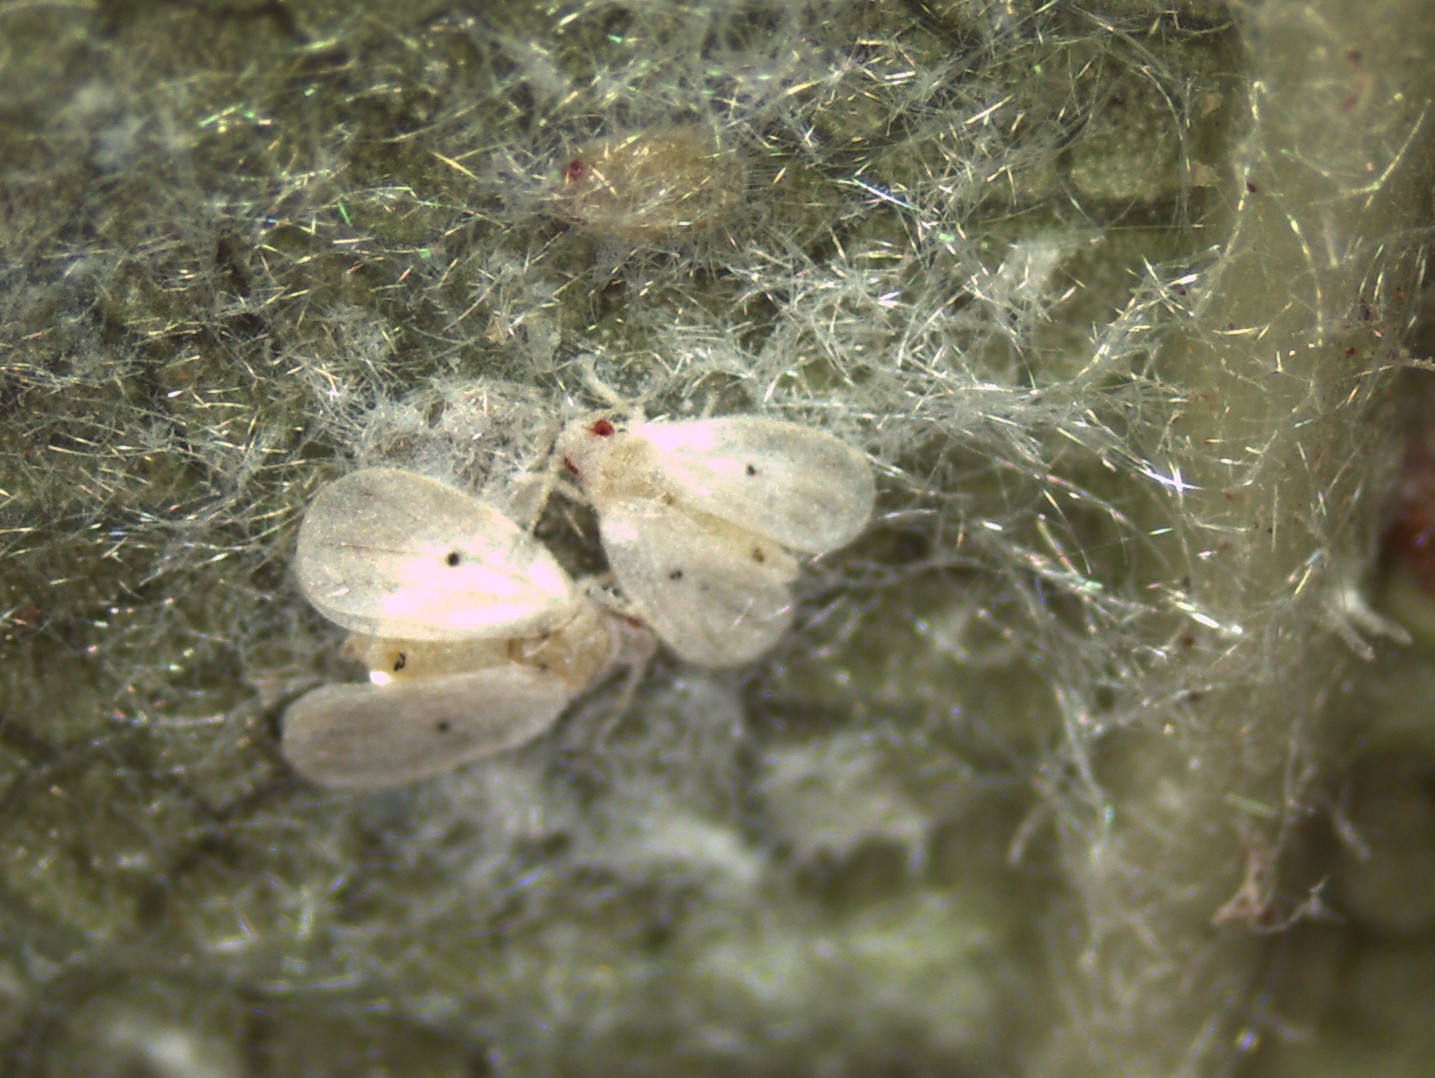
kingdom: Animalia
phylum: Arthropoda
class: Insecta
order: Hemiptera
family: Aleyrodidae
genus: Metaleurodicus
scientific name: Metaleurodicus cardini
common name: Whitefly
